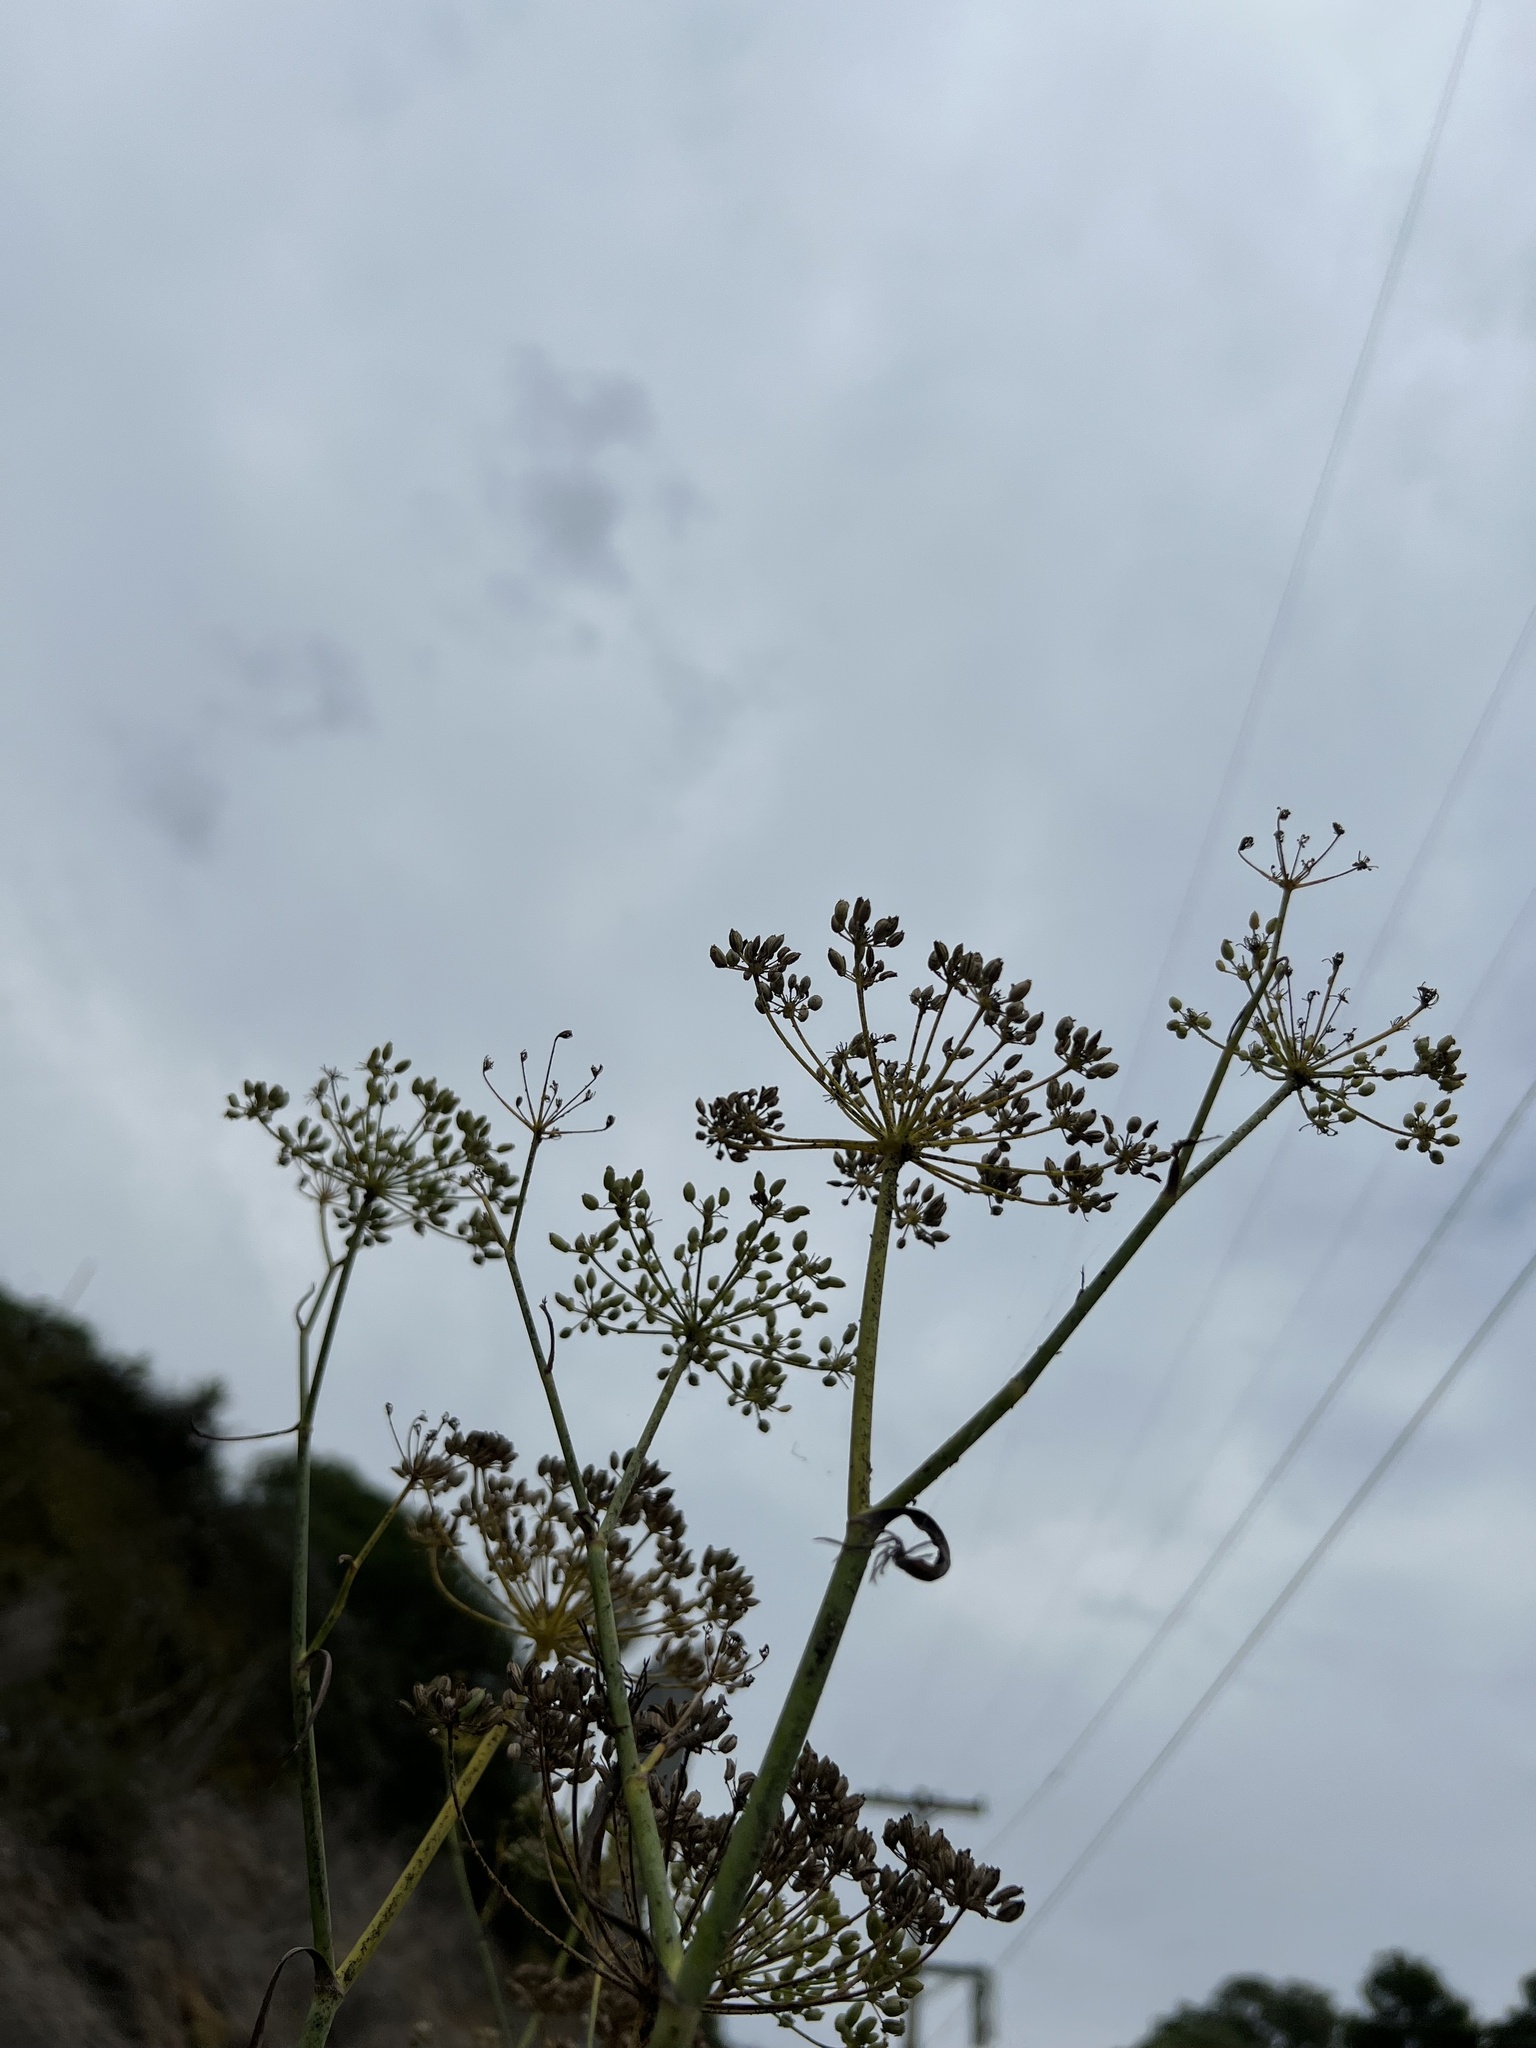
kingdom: Plantae
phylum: Tracheophyta
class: Magnoliopsida
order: Apiales
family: Apiaceae
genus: Foeniculum
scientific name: Foeniculum vulgare
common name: Fennel
